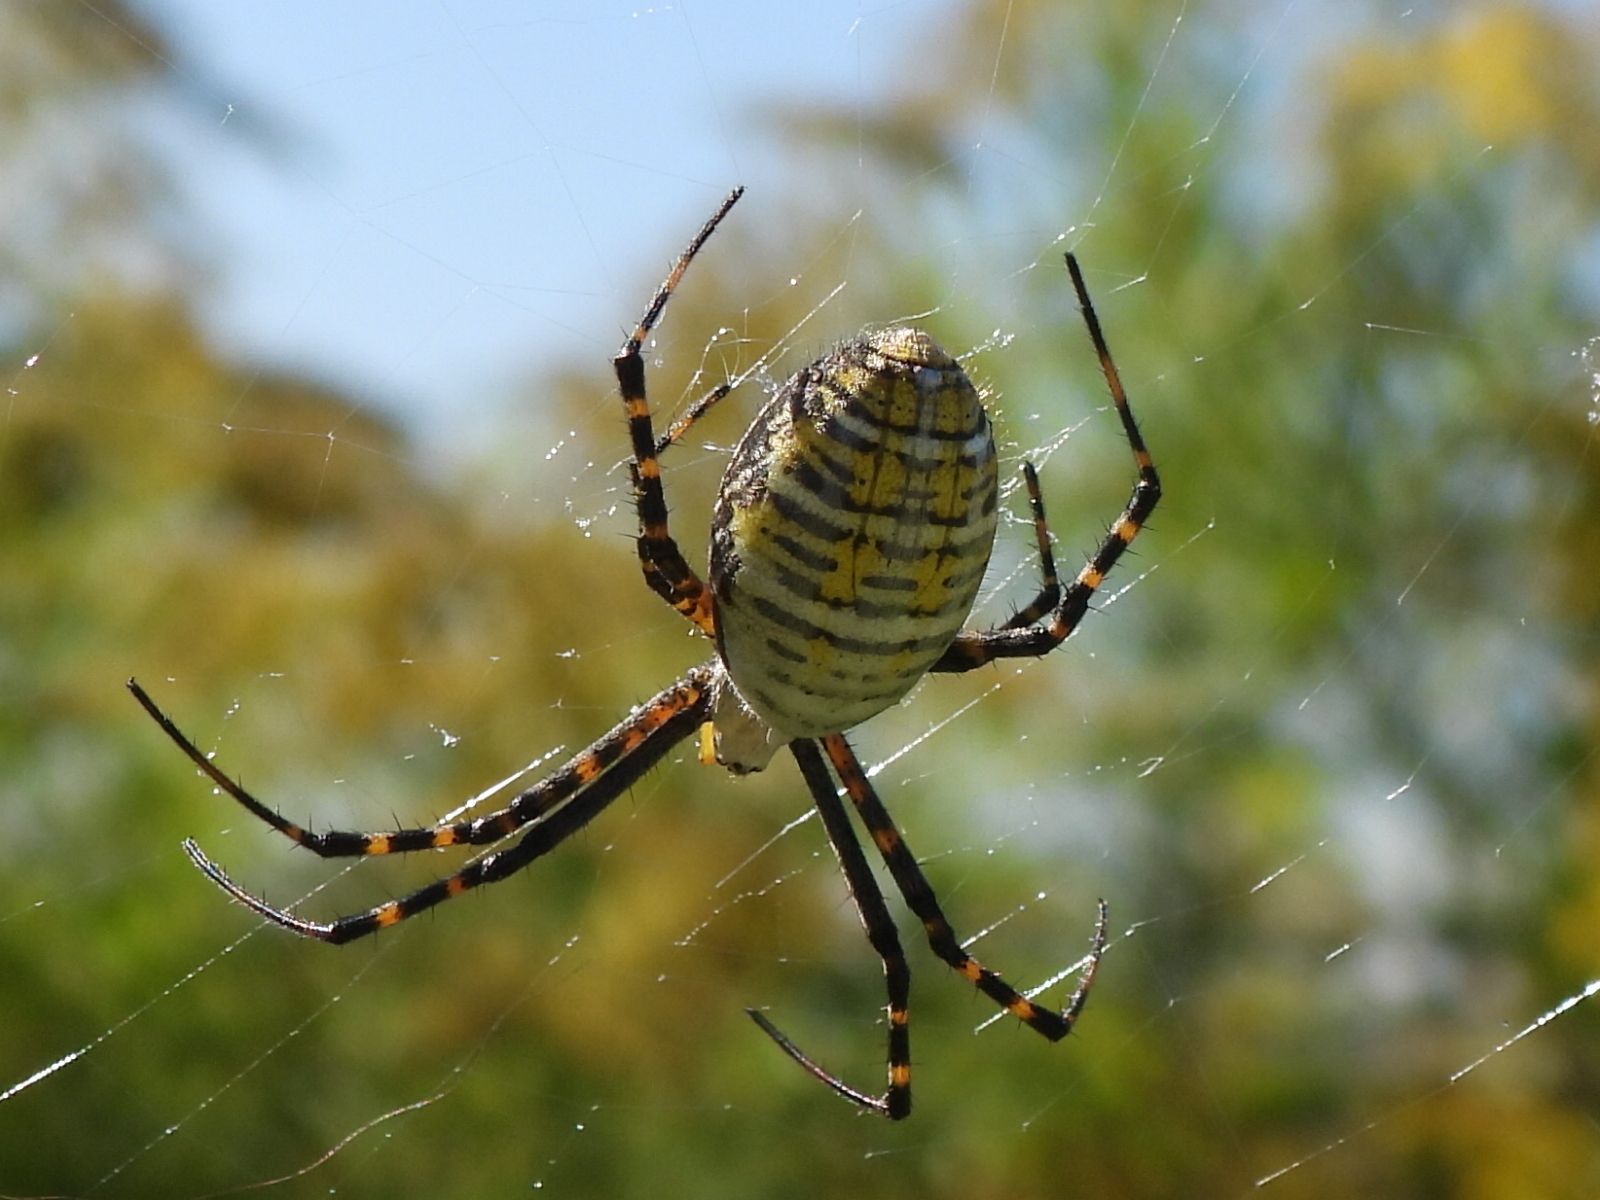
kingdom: Animalia
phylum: Arthropoda
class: Arachnida
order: Araneae
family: Araneidae
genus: Argiope
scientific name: Argiope trifasciata
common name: Banded garden spider
